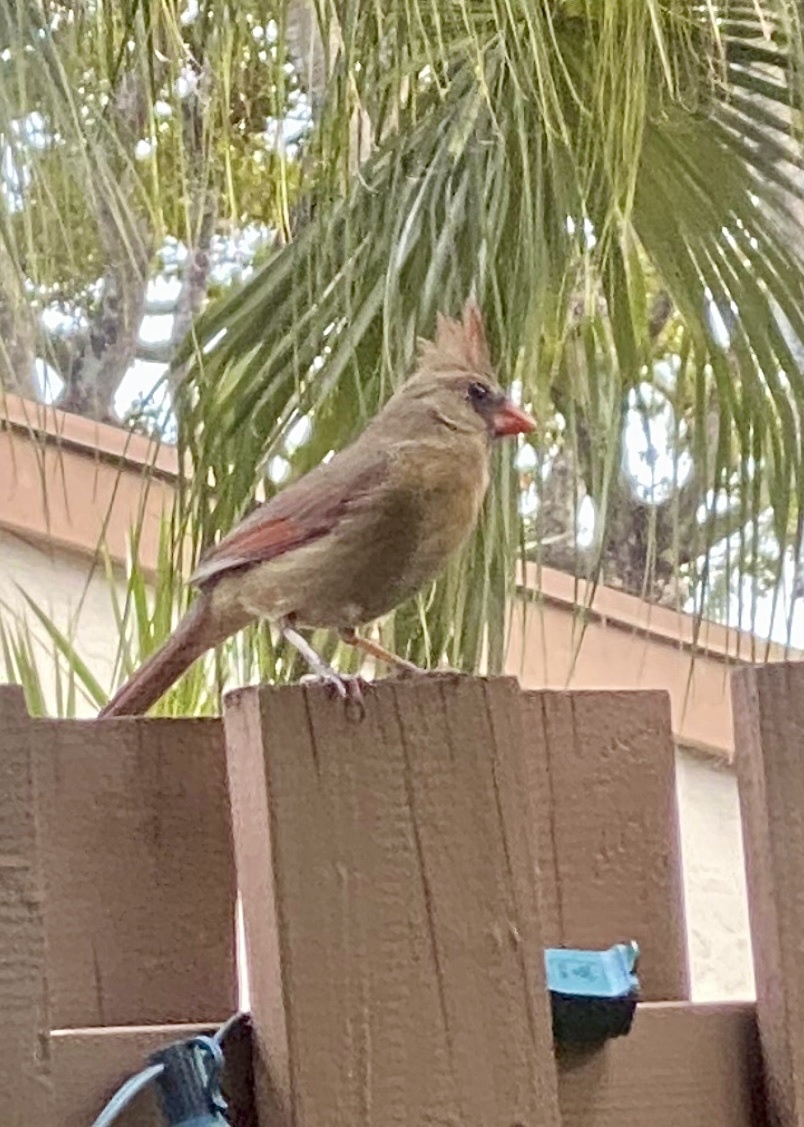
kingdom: Animalia
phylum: Chordata
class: Aves
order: Passeriformes
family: Cardinalidae
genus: Cardinalis
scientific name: Cardinalis cardinalis
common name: Northern cardinal
